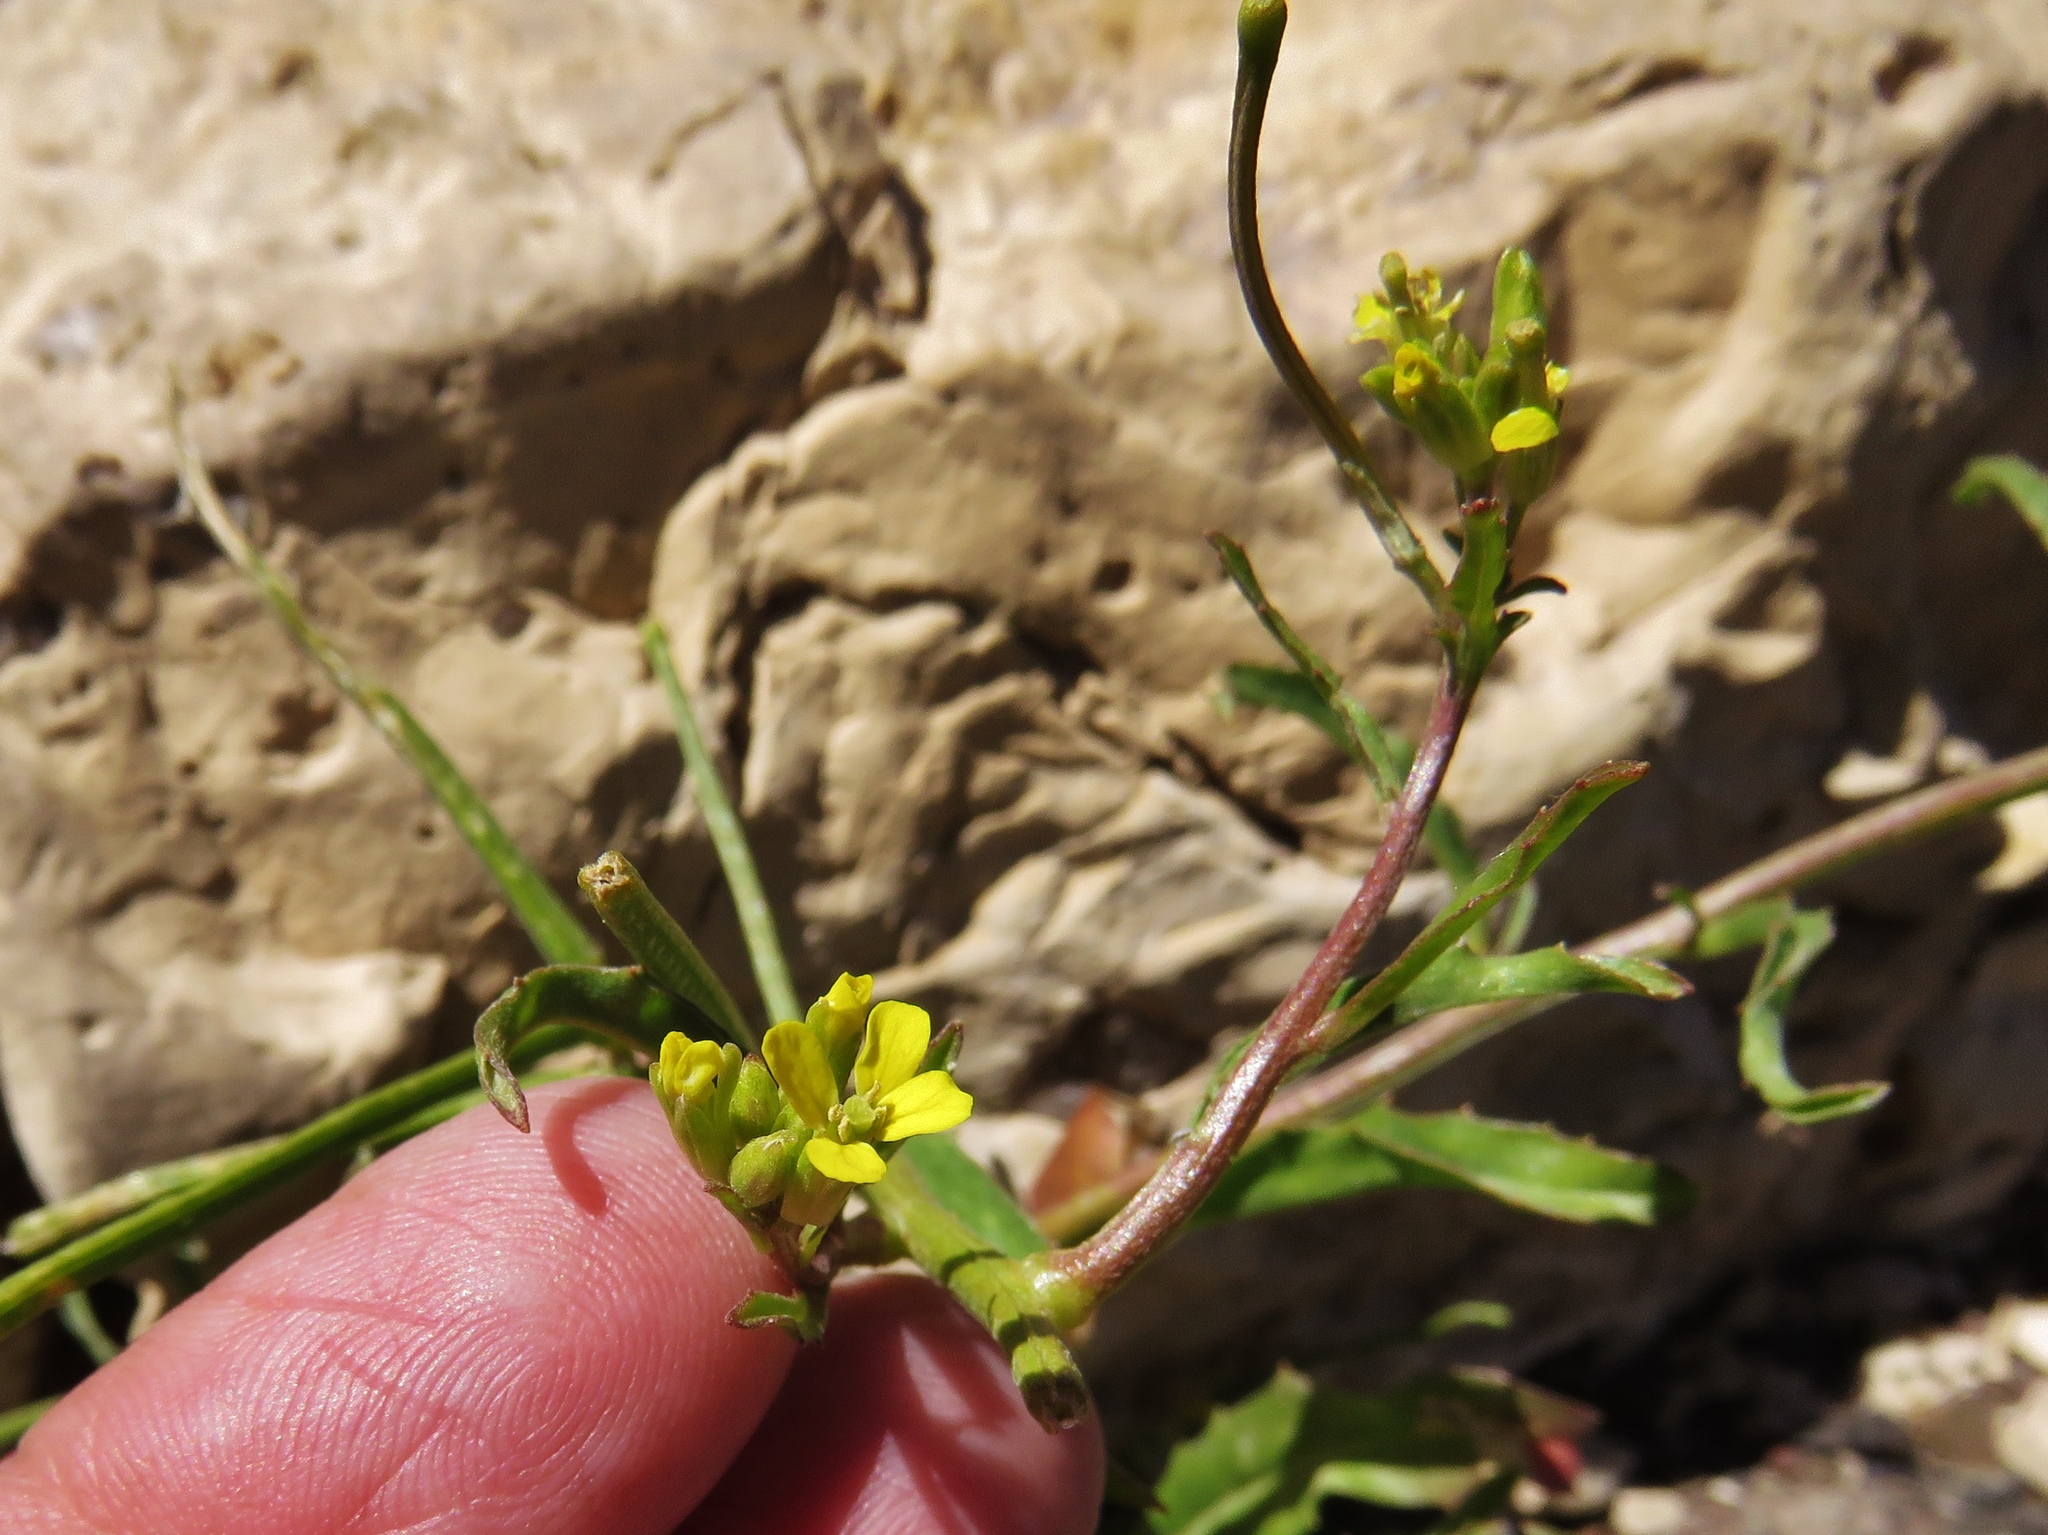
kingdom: Plantae
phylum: Tracheophyta
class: Magnoliopsida
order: Brassicales
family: Brassicaceae
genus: Sisymbrium
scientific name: Sisymbrium orientale
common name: Eastern rocket
